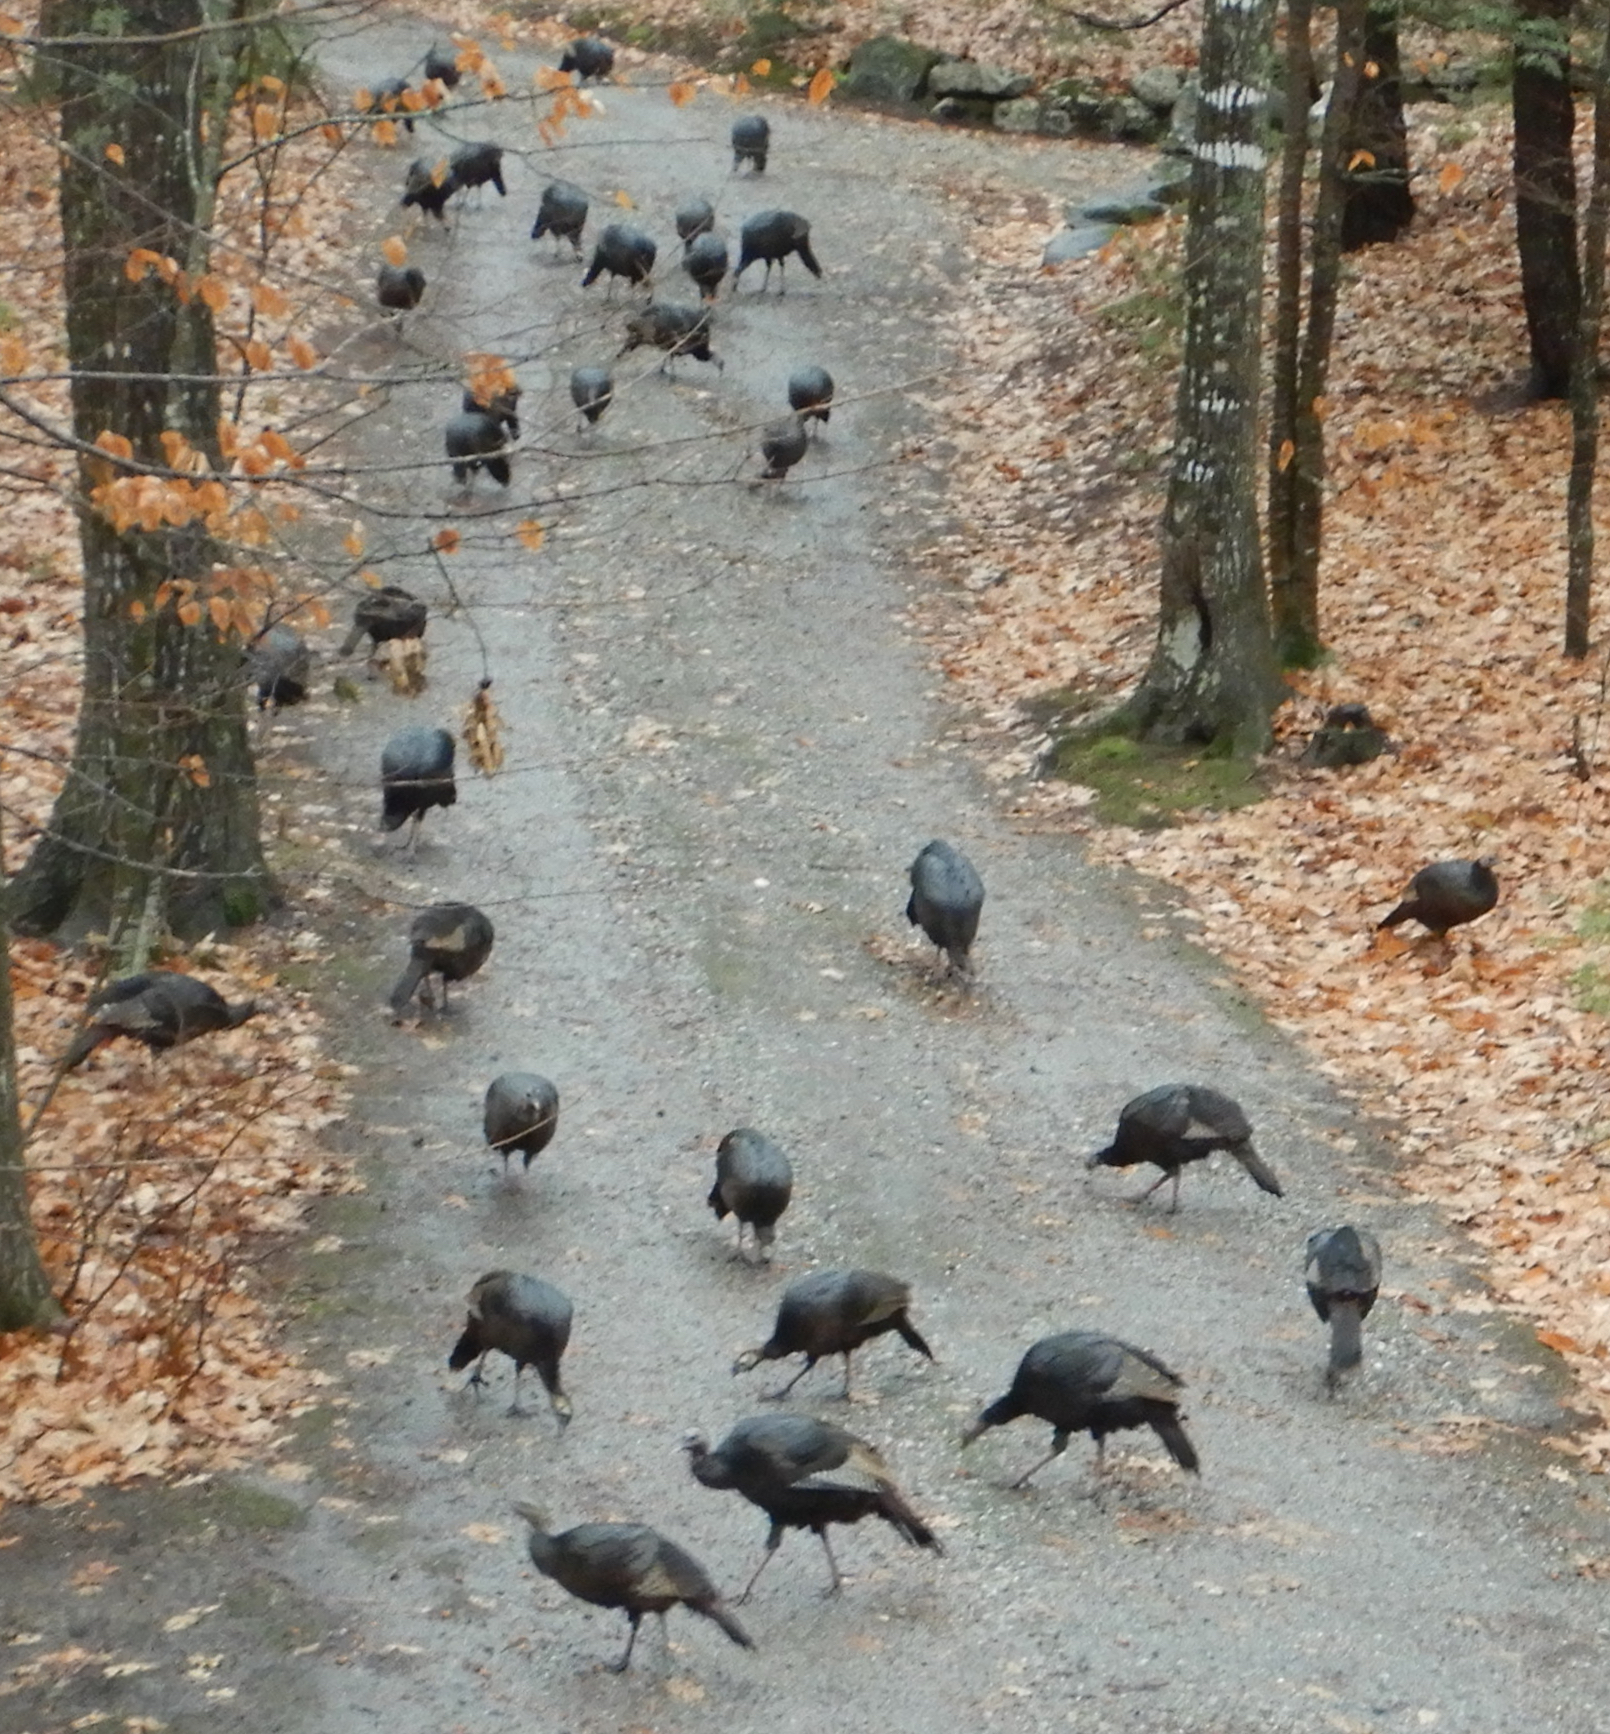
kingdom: Animalia
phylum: Chordata
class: Aves
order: Galliformes
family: Phasianidae
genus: Meleagris
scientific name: Meleagris gallopavo
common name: Wild turkey
